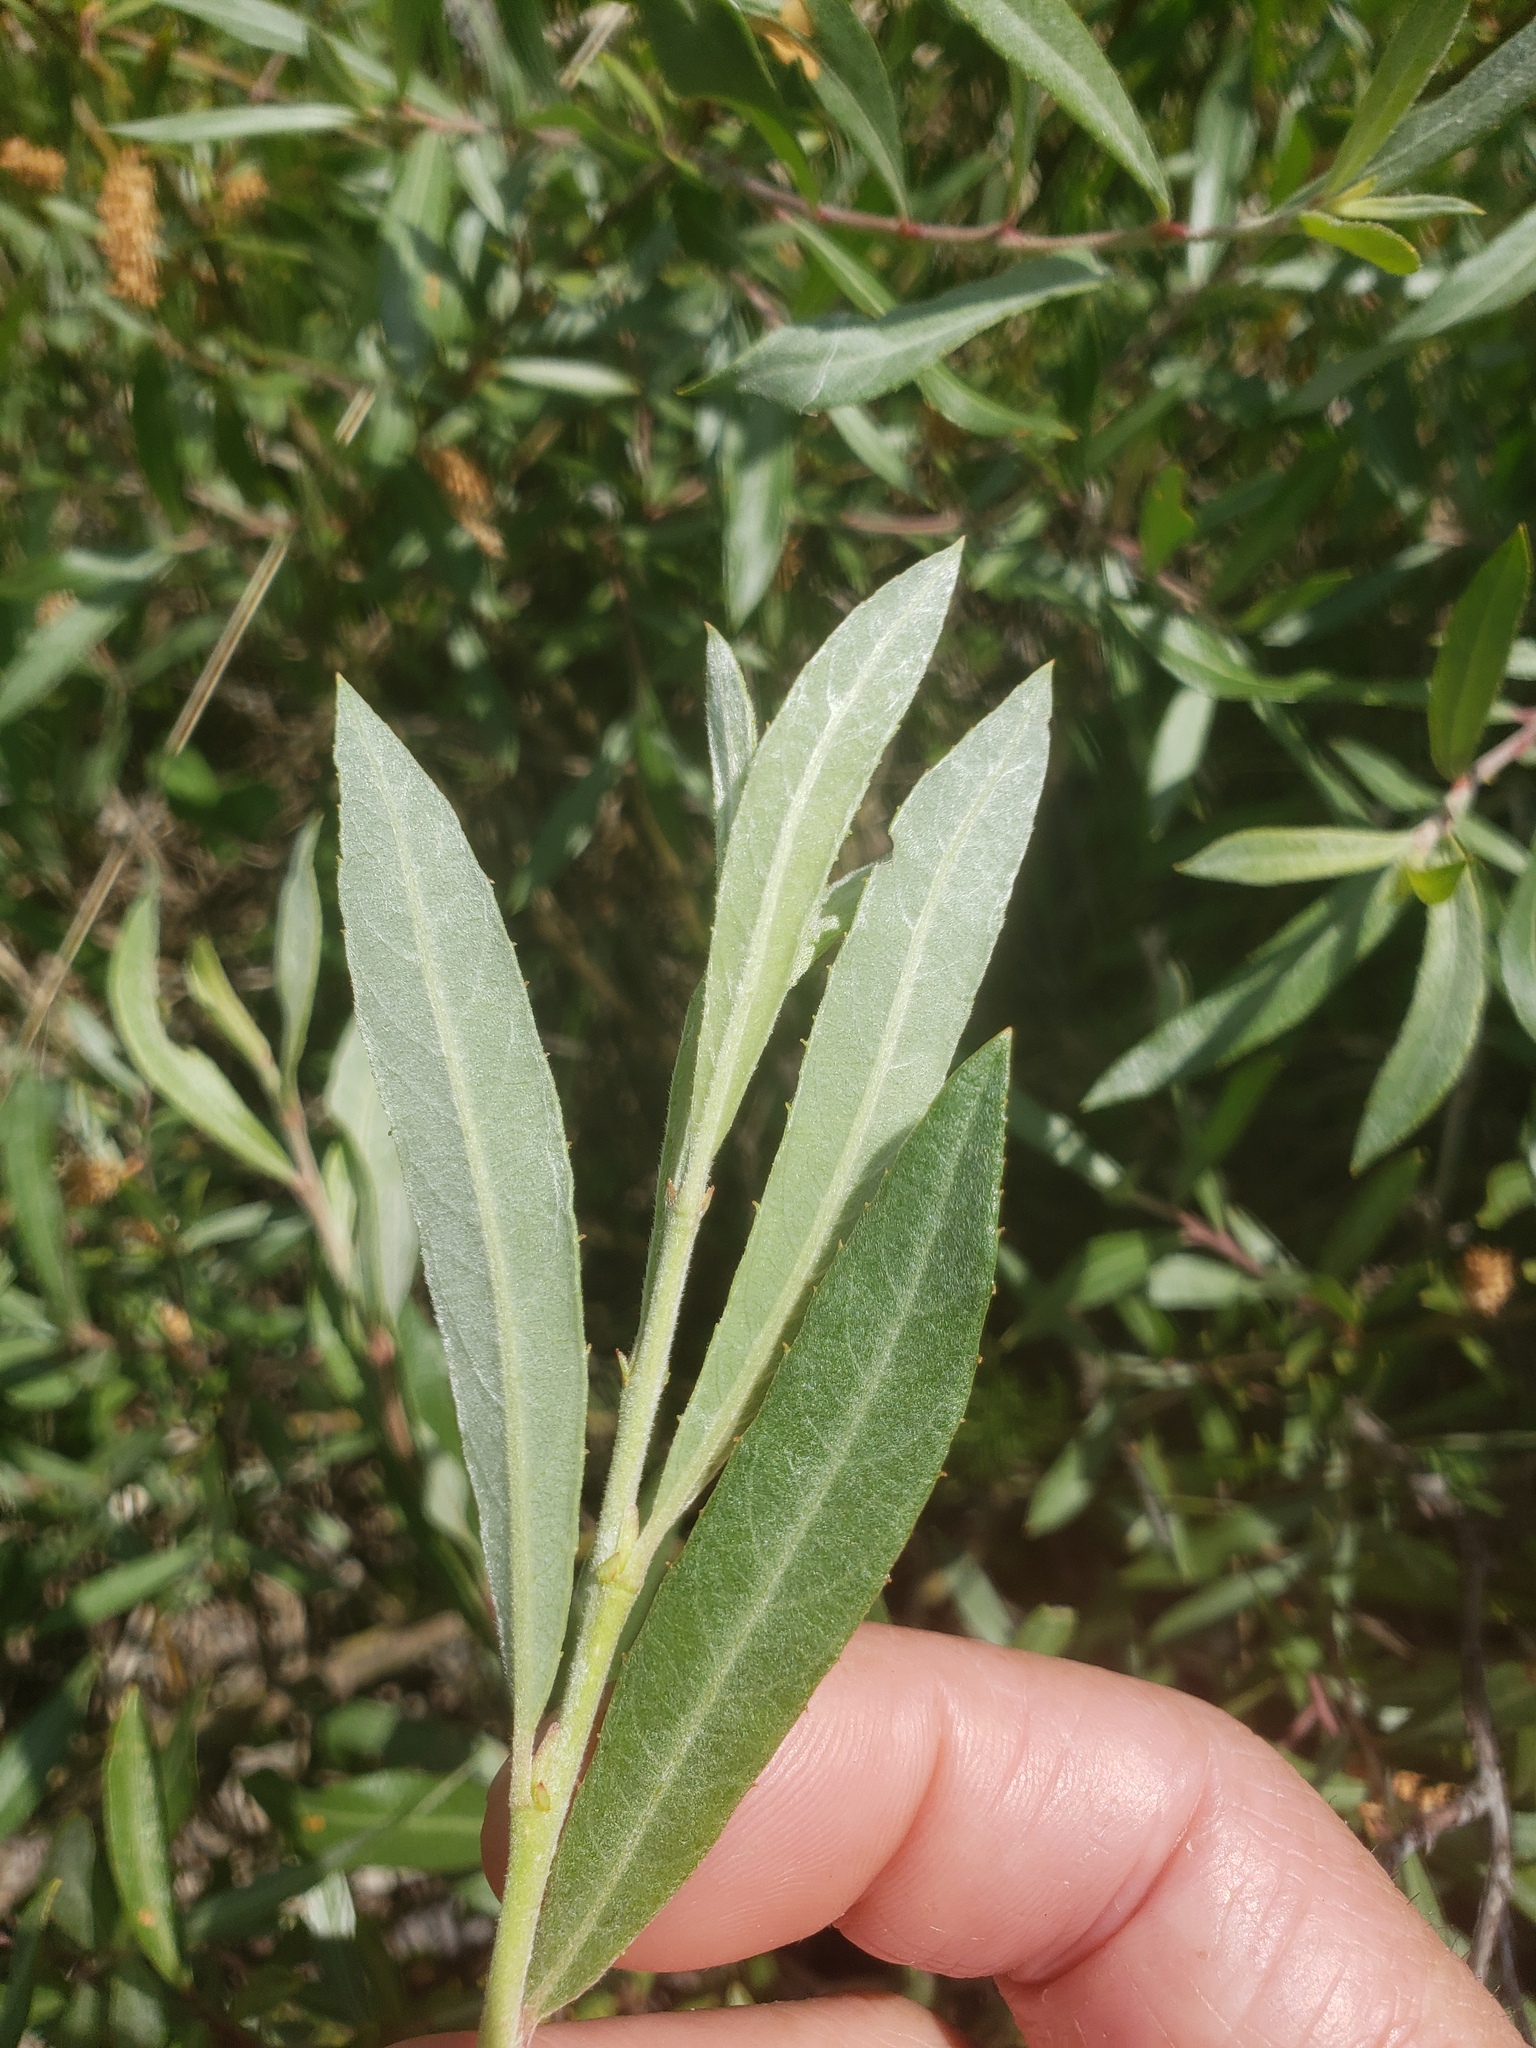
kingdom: Plantae
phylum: Tracheophyta
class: Magnoliopsida
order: Malpighiales
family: Salicaceae
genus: Salix
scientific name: Salix melanopsis
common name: Dusky willow
